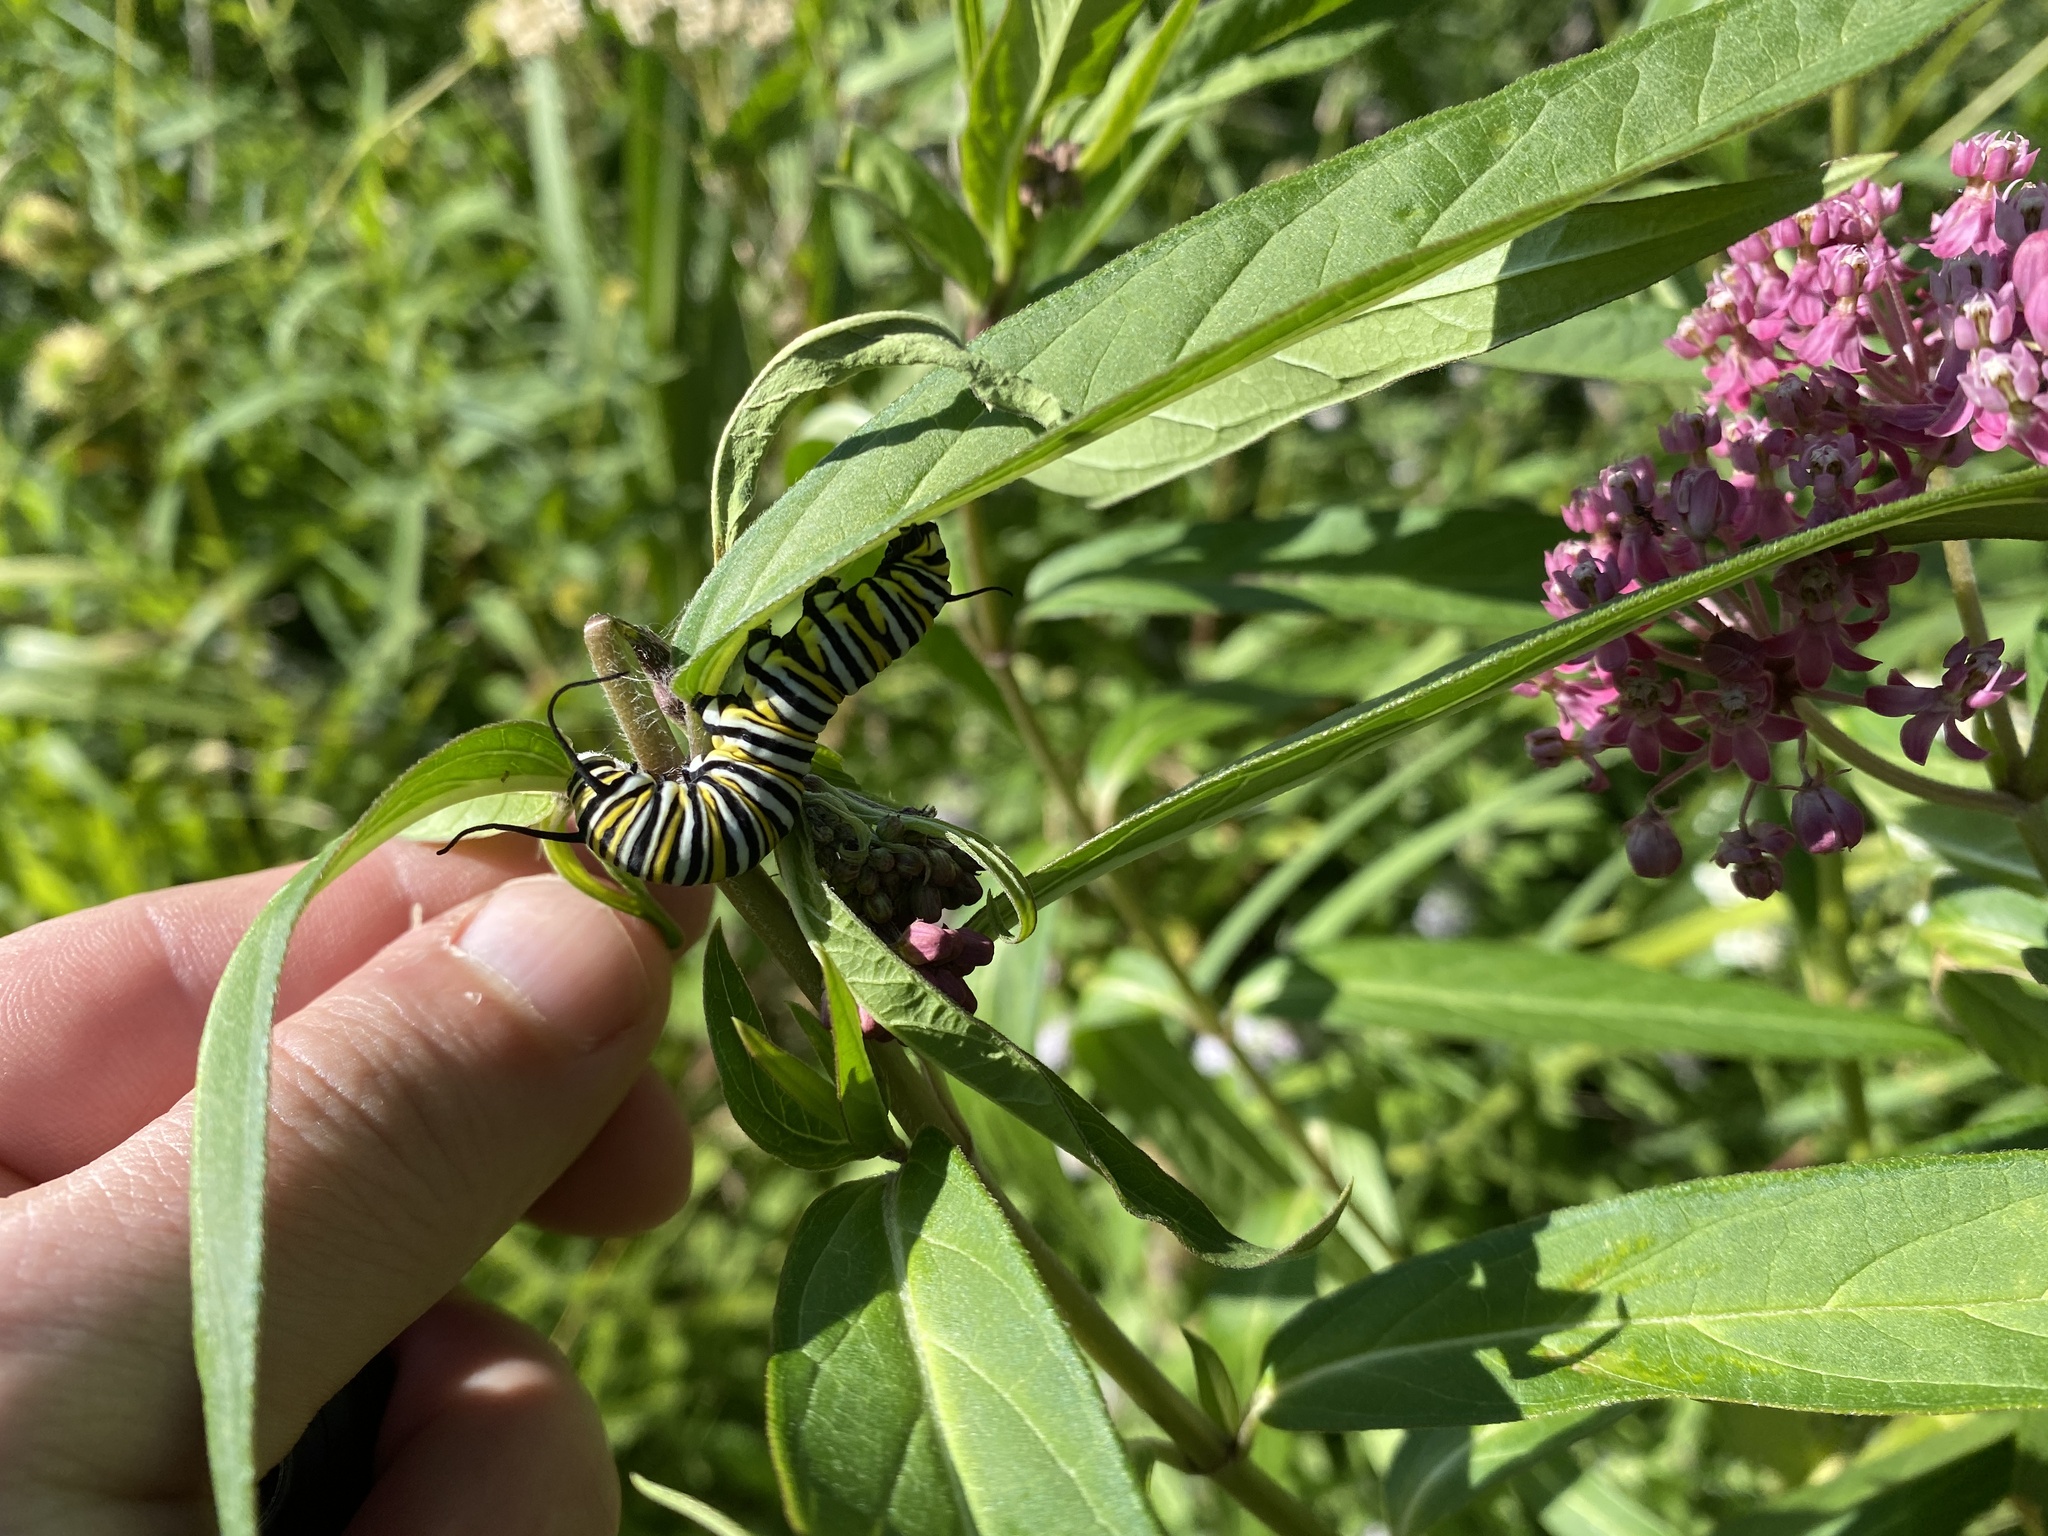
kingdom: Animalia
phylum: Arthropoda
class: Insecta
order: Lepidoptera
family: Nymphalidae
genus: Danaus
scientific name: Danaus plexippus
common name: Monarch
